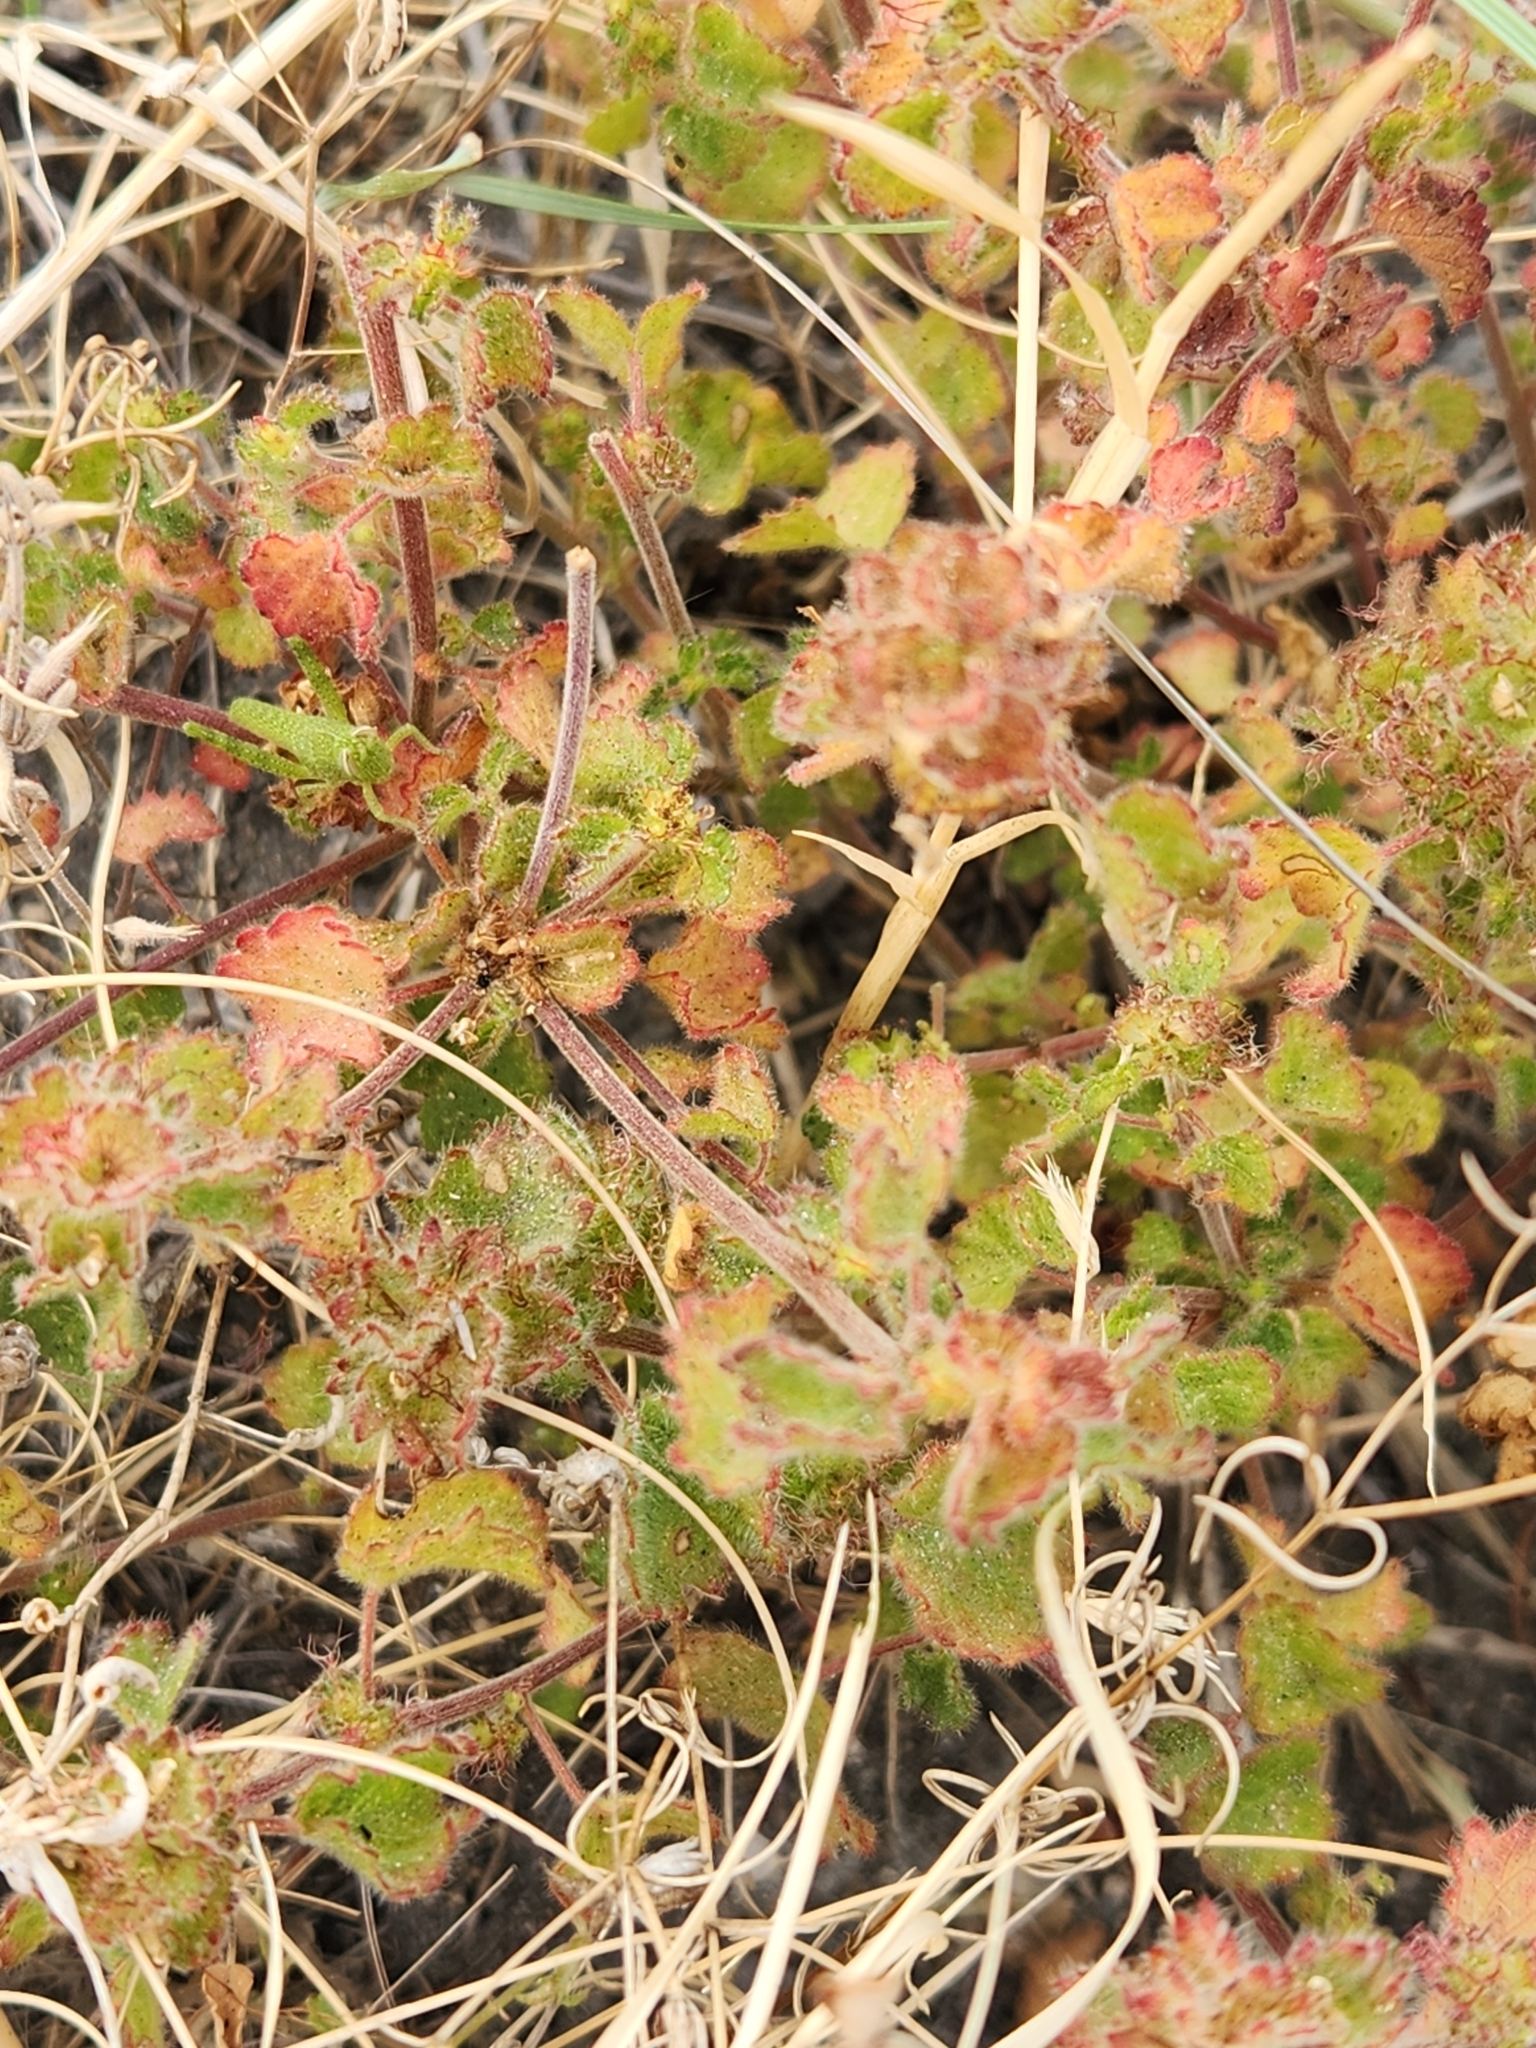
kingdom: Plantae
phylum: Tracheophyta
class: Magnoliopsida
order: Malpighiales
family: Euphorbiaceae
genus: Acalypha
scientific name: Acalypha monostachya
